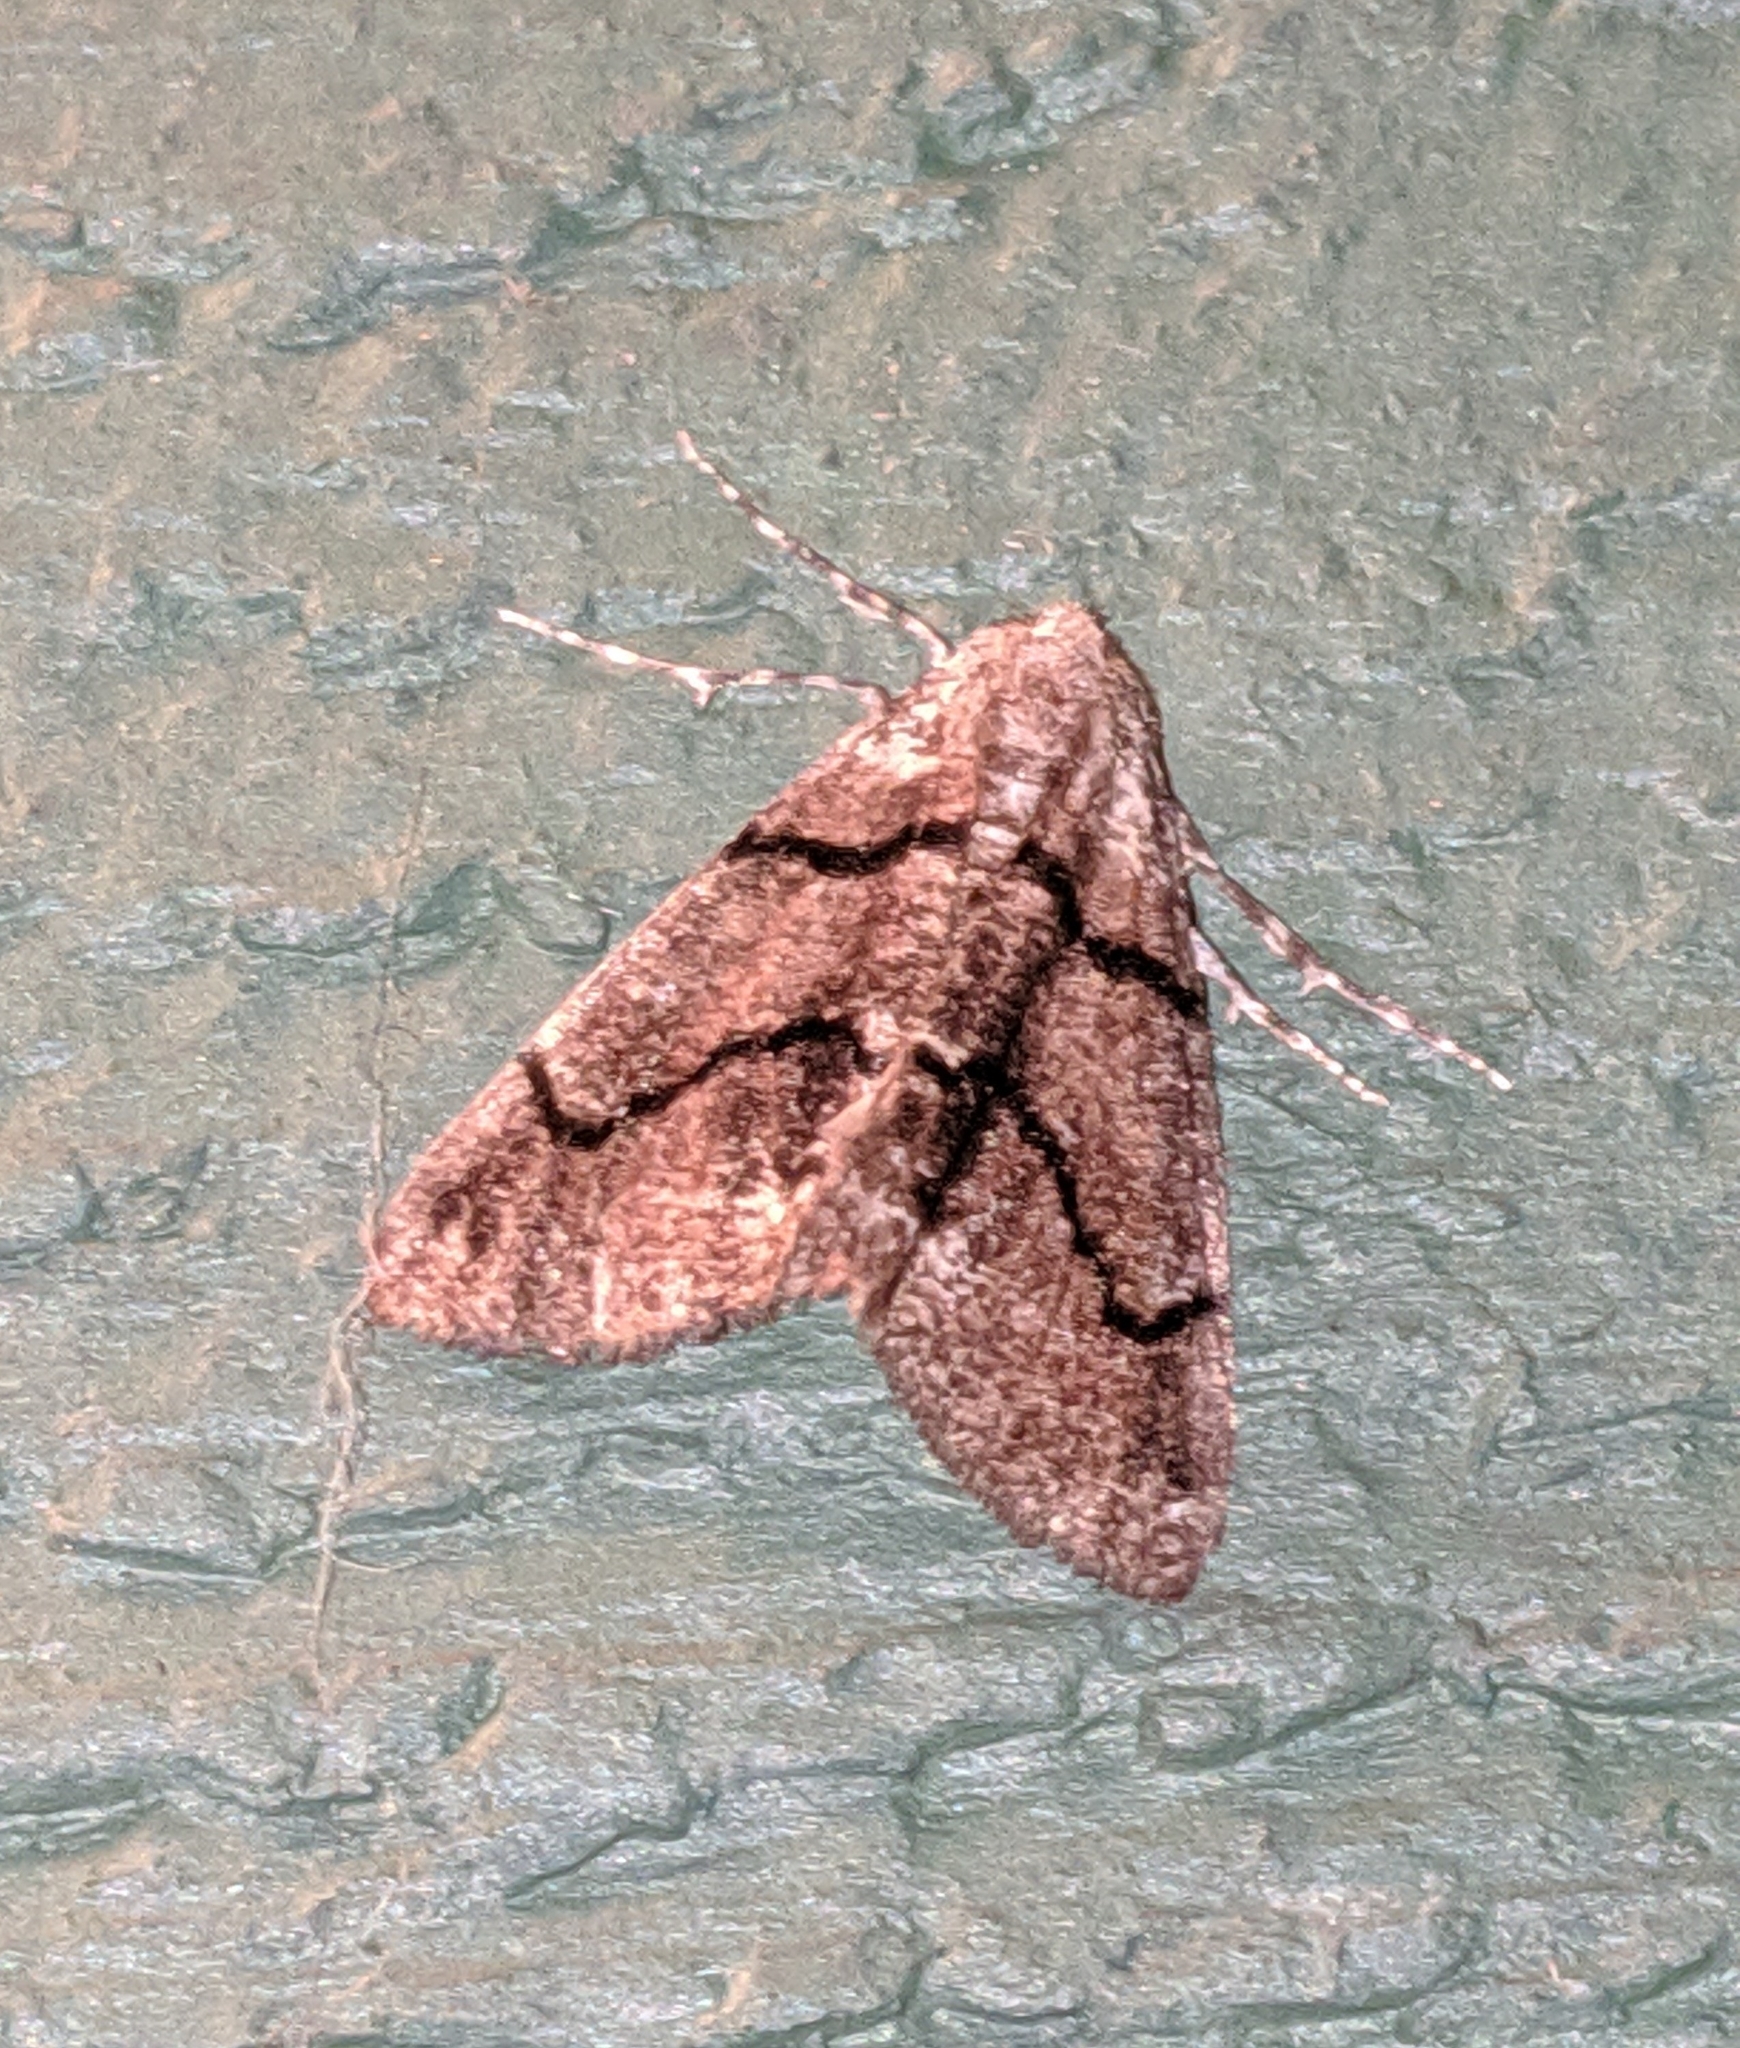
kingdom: Animalia
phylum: Arthropoda
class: Insecta
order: Lepidoptera
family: Geometridae
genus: Gabriola
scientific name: Gabriola dyari
